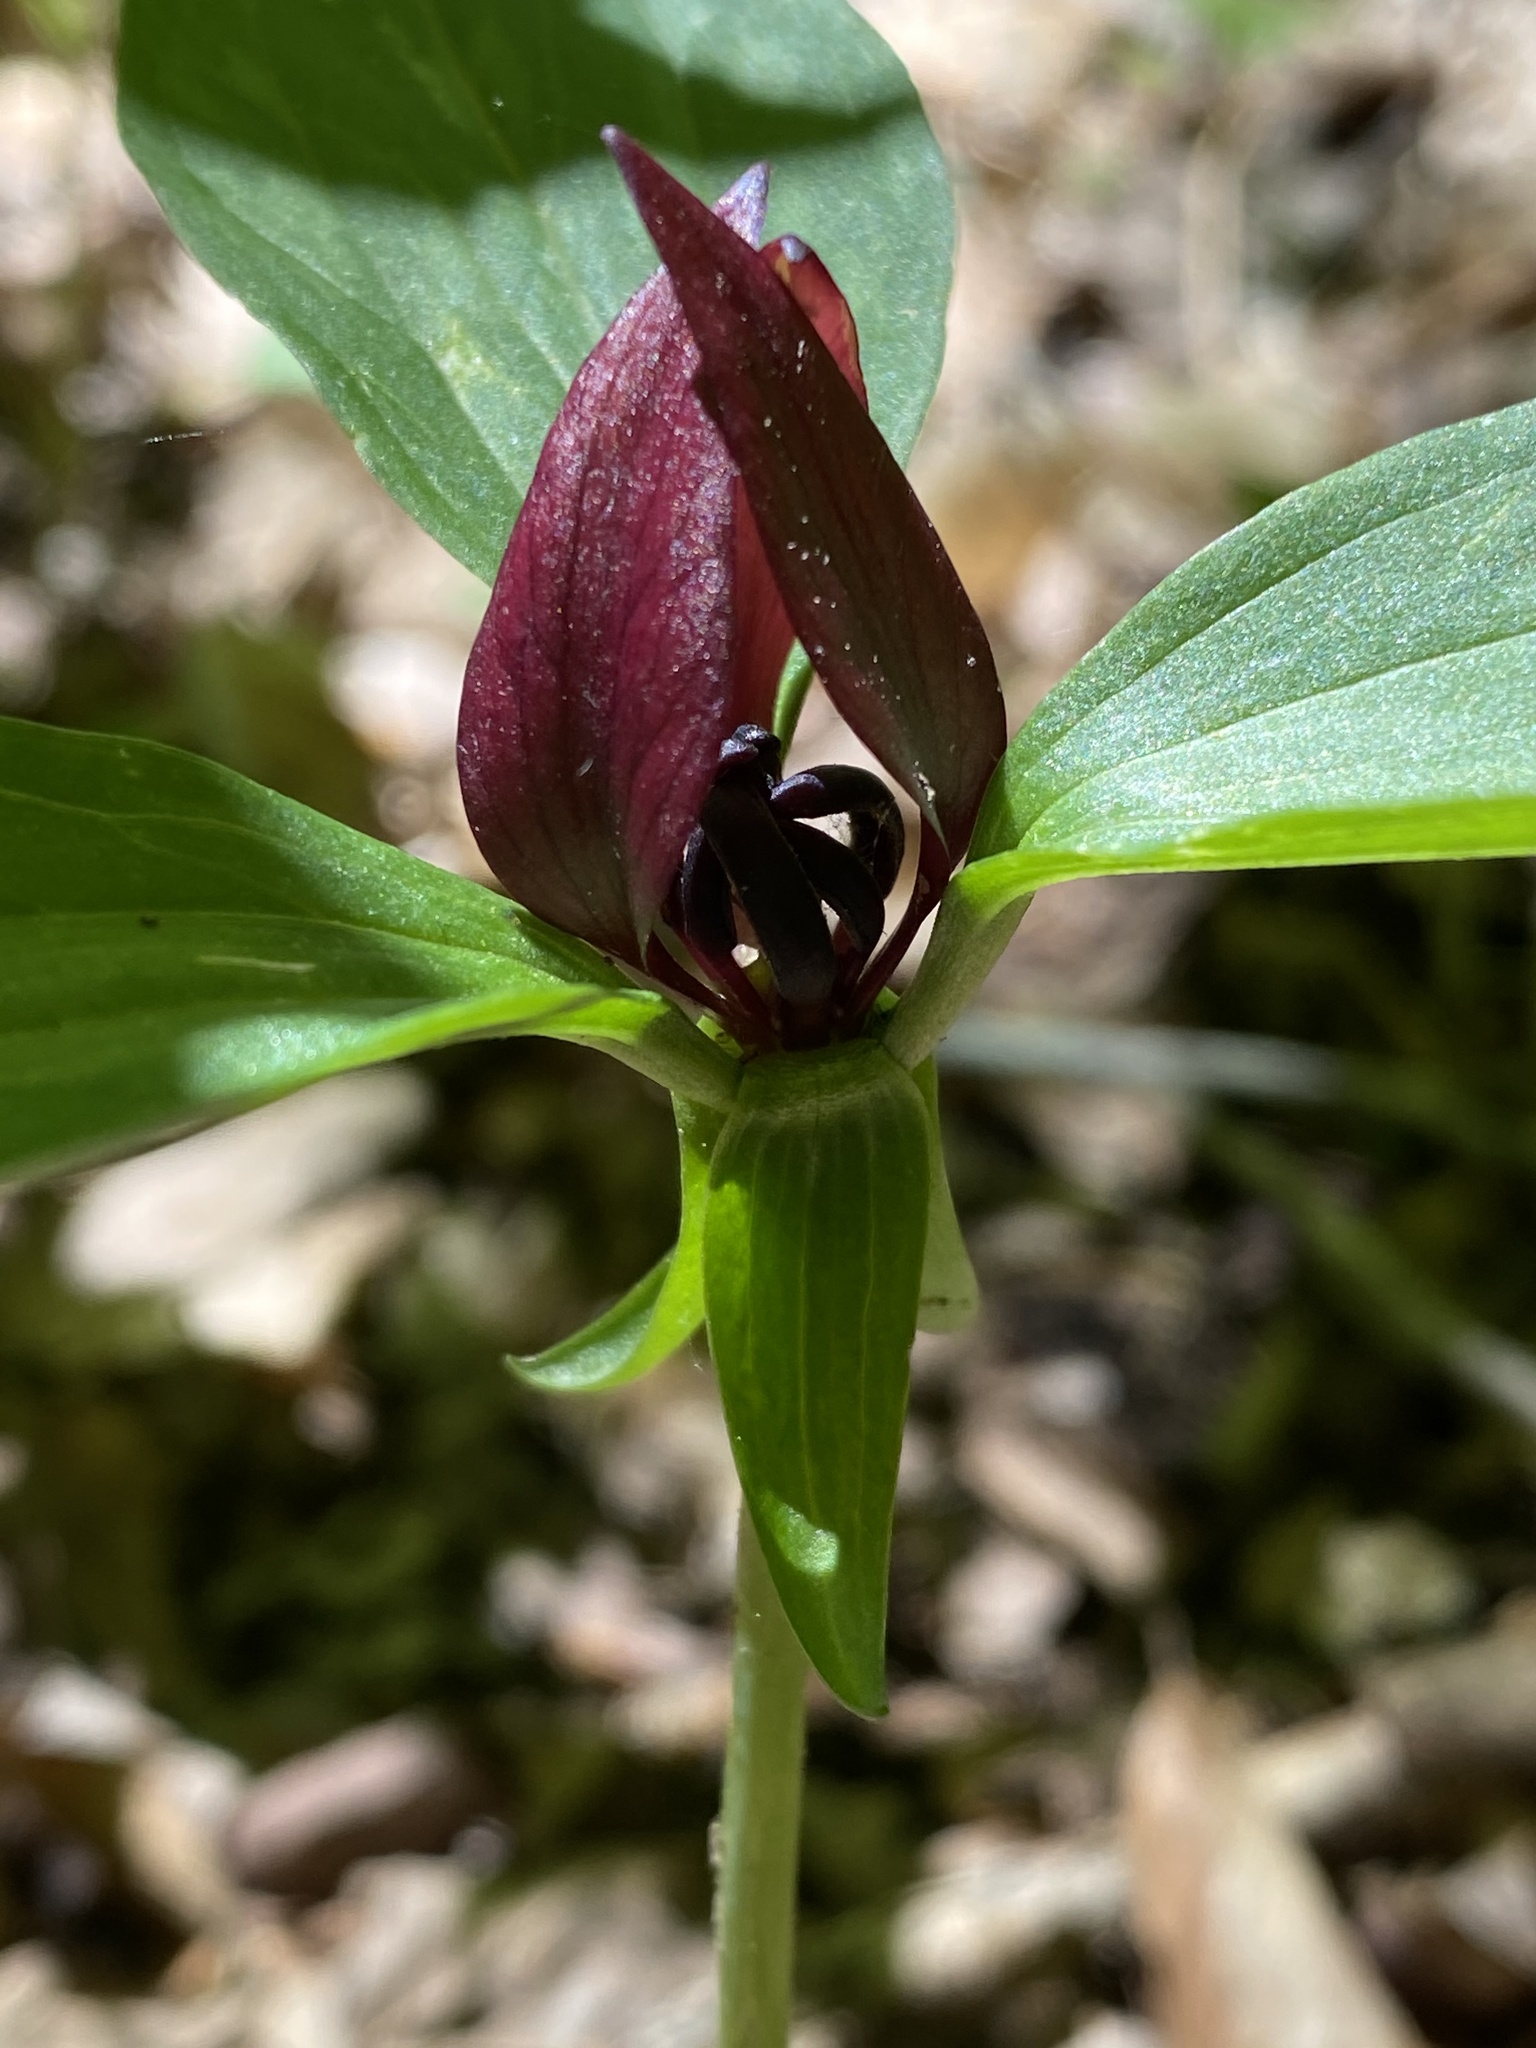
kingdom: Plantae
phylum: Tracheophyta
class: Liliopsida
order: Liliales
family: Melanthiaceae
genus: Trillium
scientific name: Trillium recurvatum
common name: Bloody butcher
